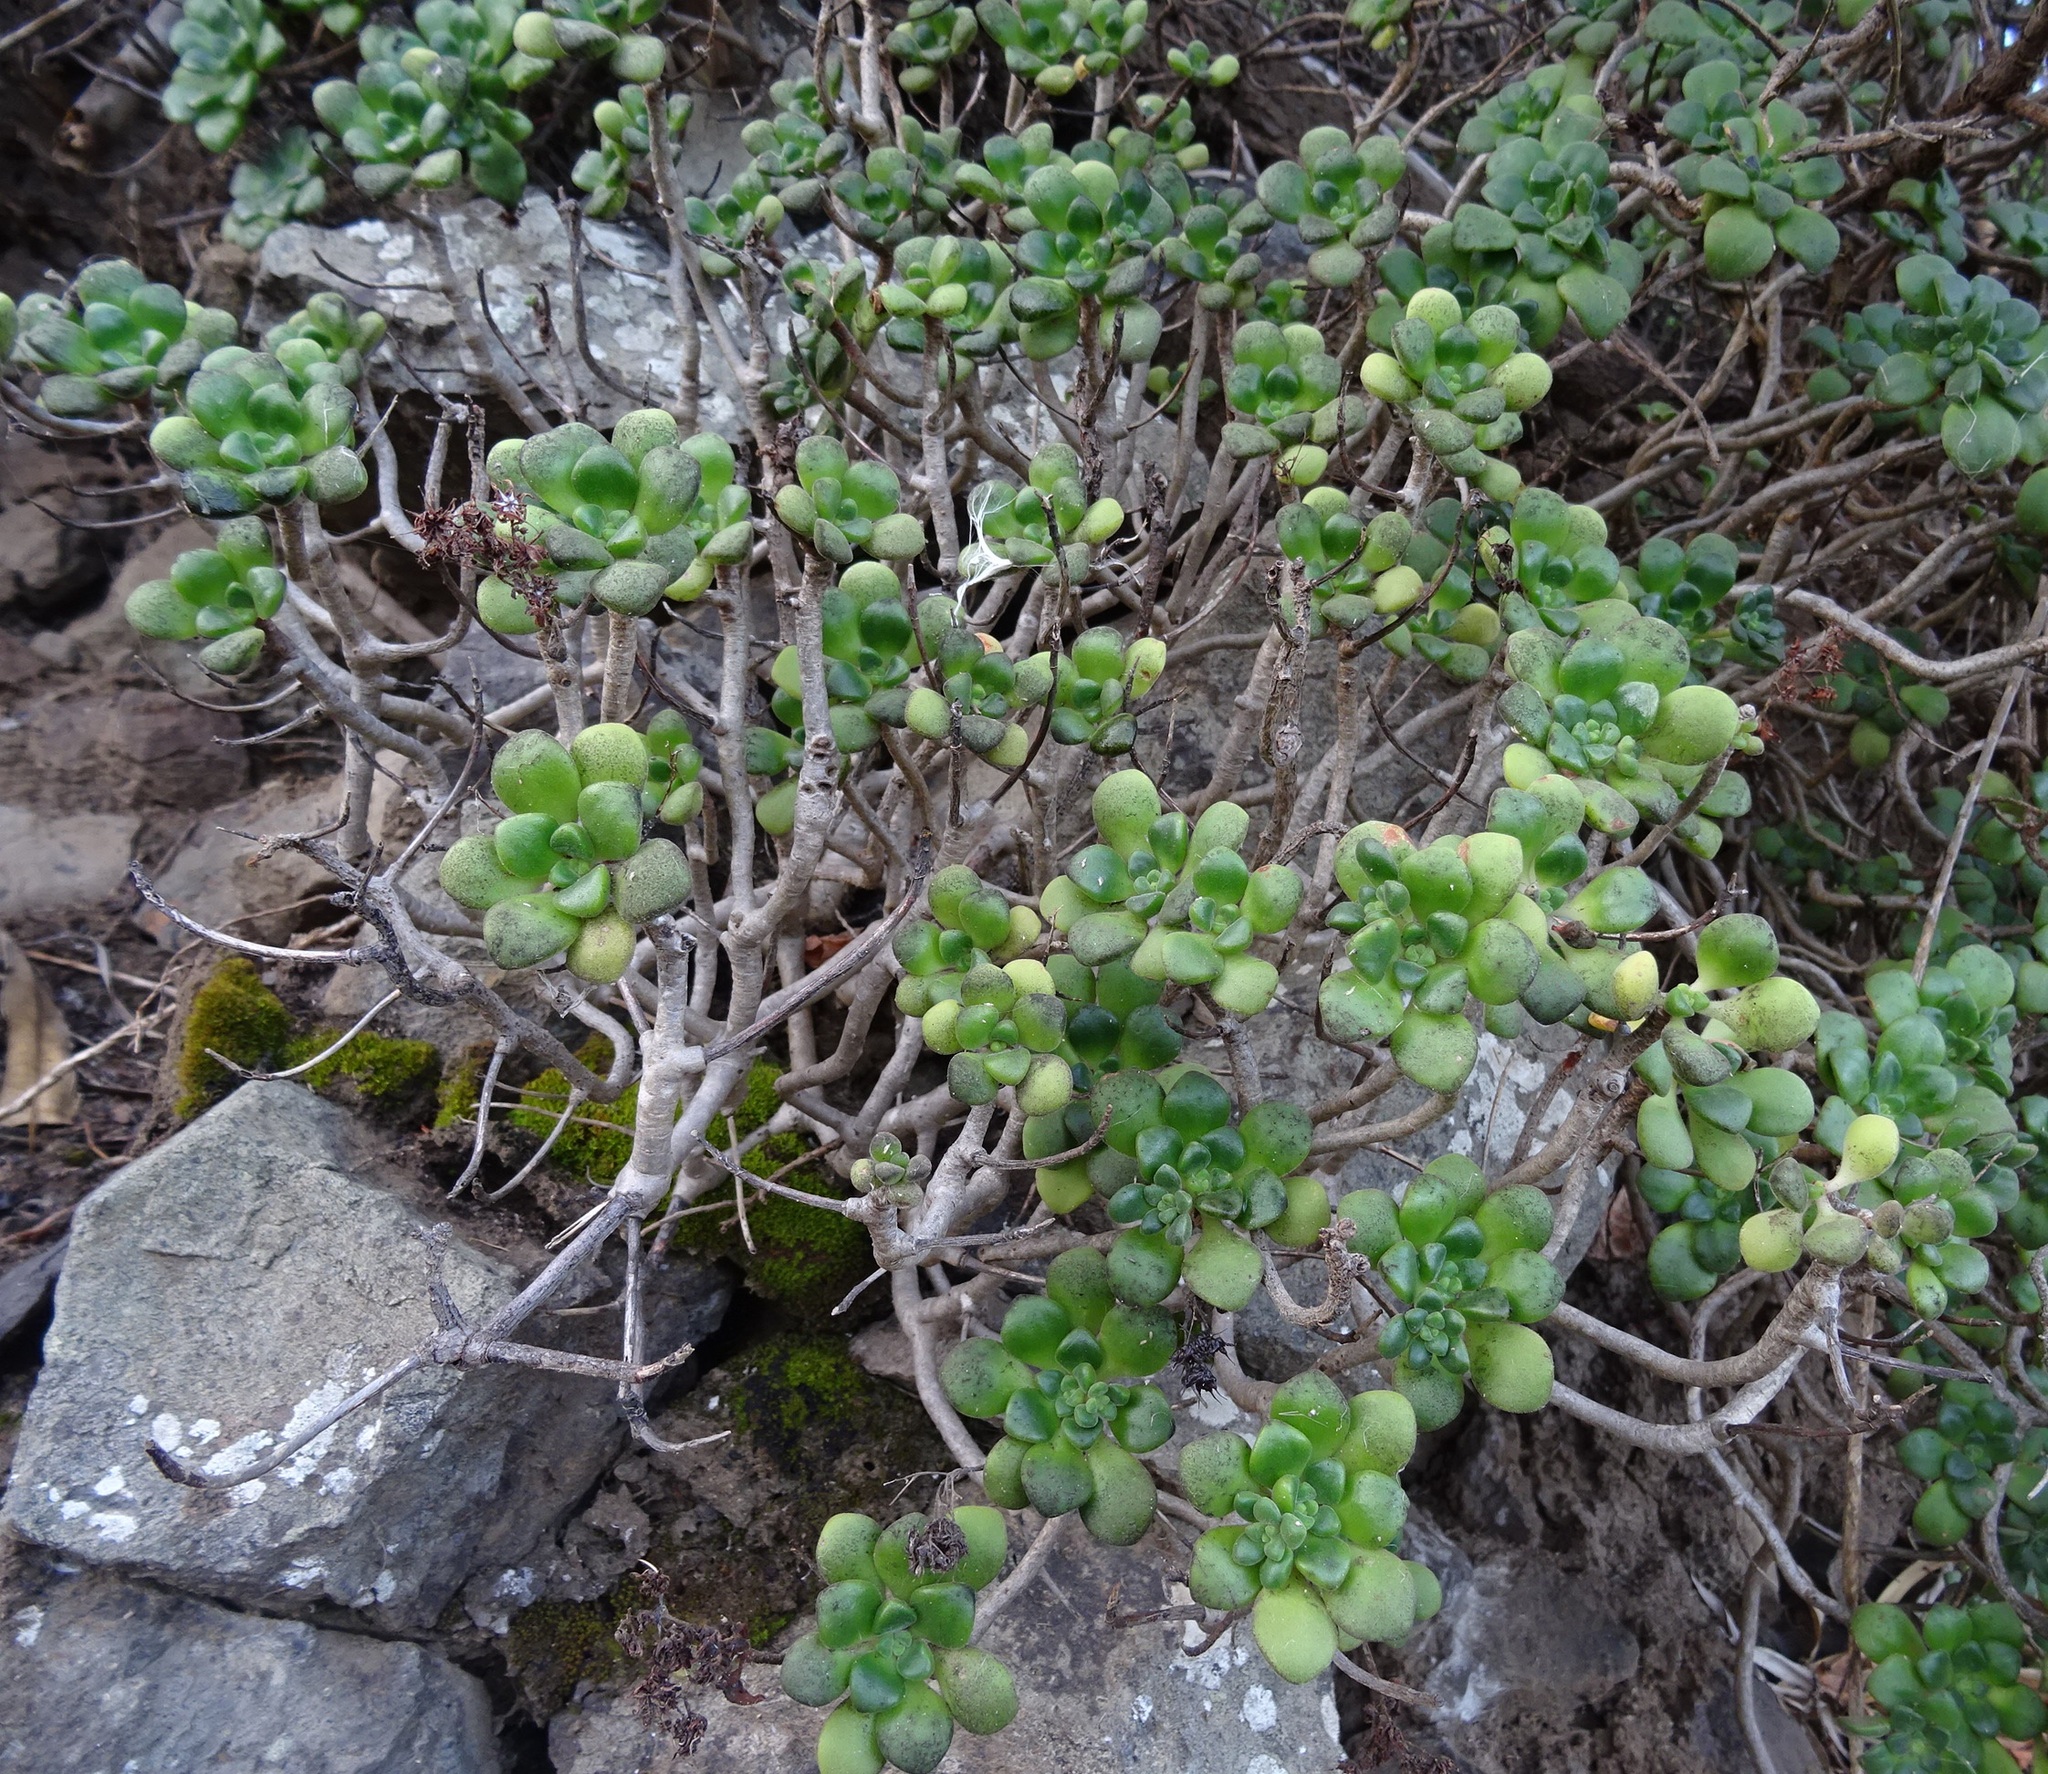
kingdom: Plantae
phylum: Tracheophyta
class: Magnoliopsida
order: Saxifragales
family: Crassulaceae
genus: Aeonium
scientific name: Aeonium lindleyi
